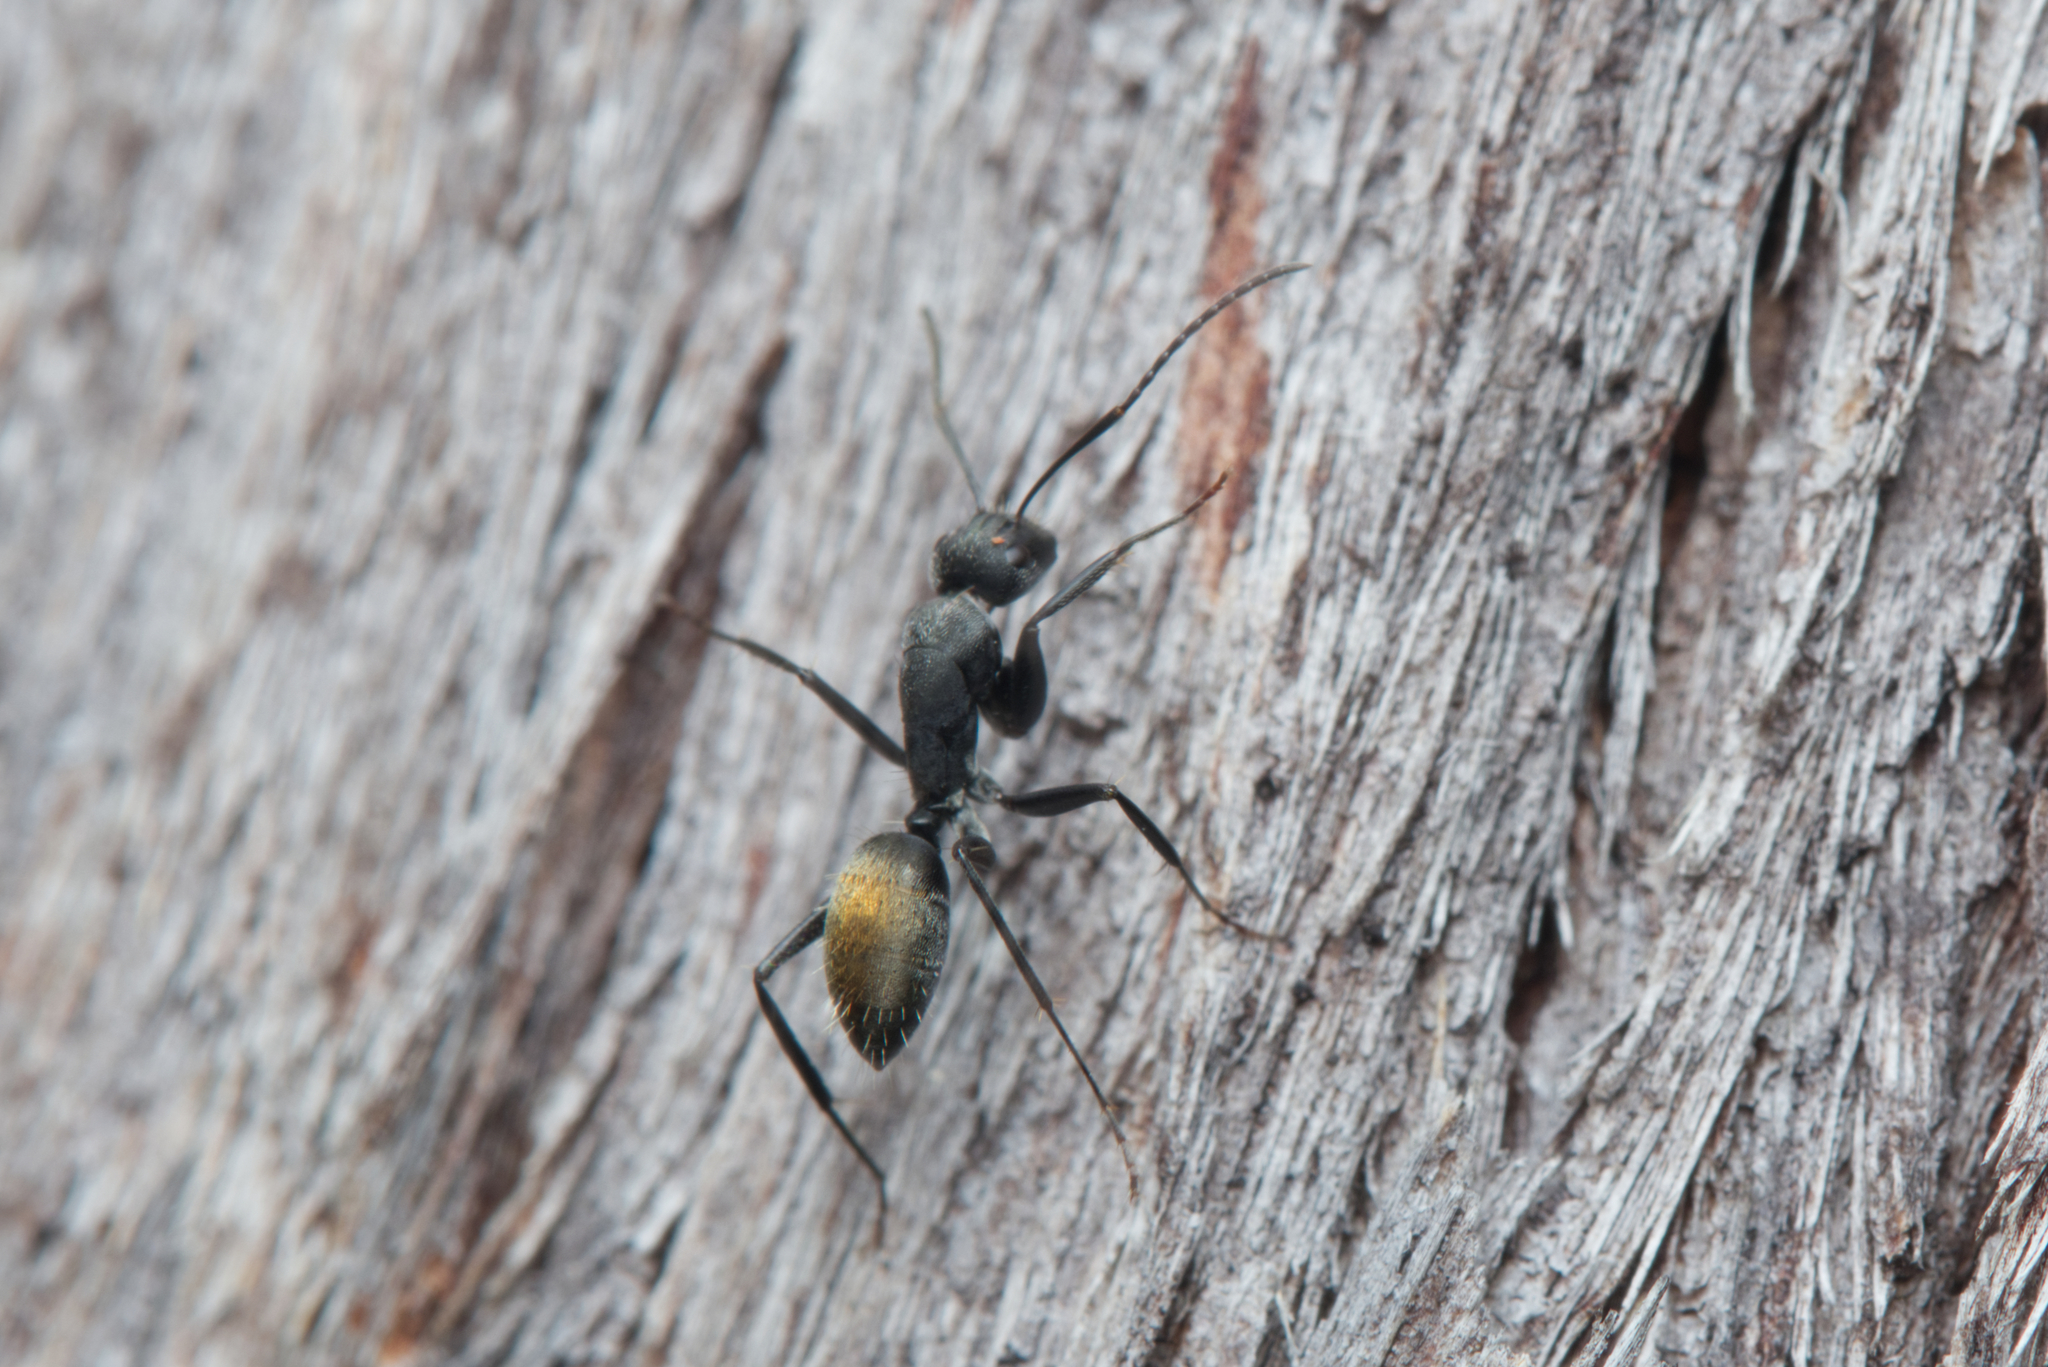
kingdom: Animalia
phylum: Arthropoda
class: Insecta
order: Hymenoptera
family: Formicidae
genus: Camponotus
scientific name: Camponotus aeneopilosus
